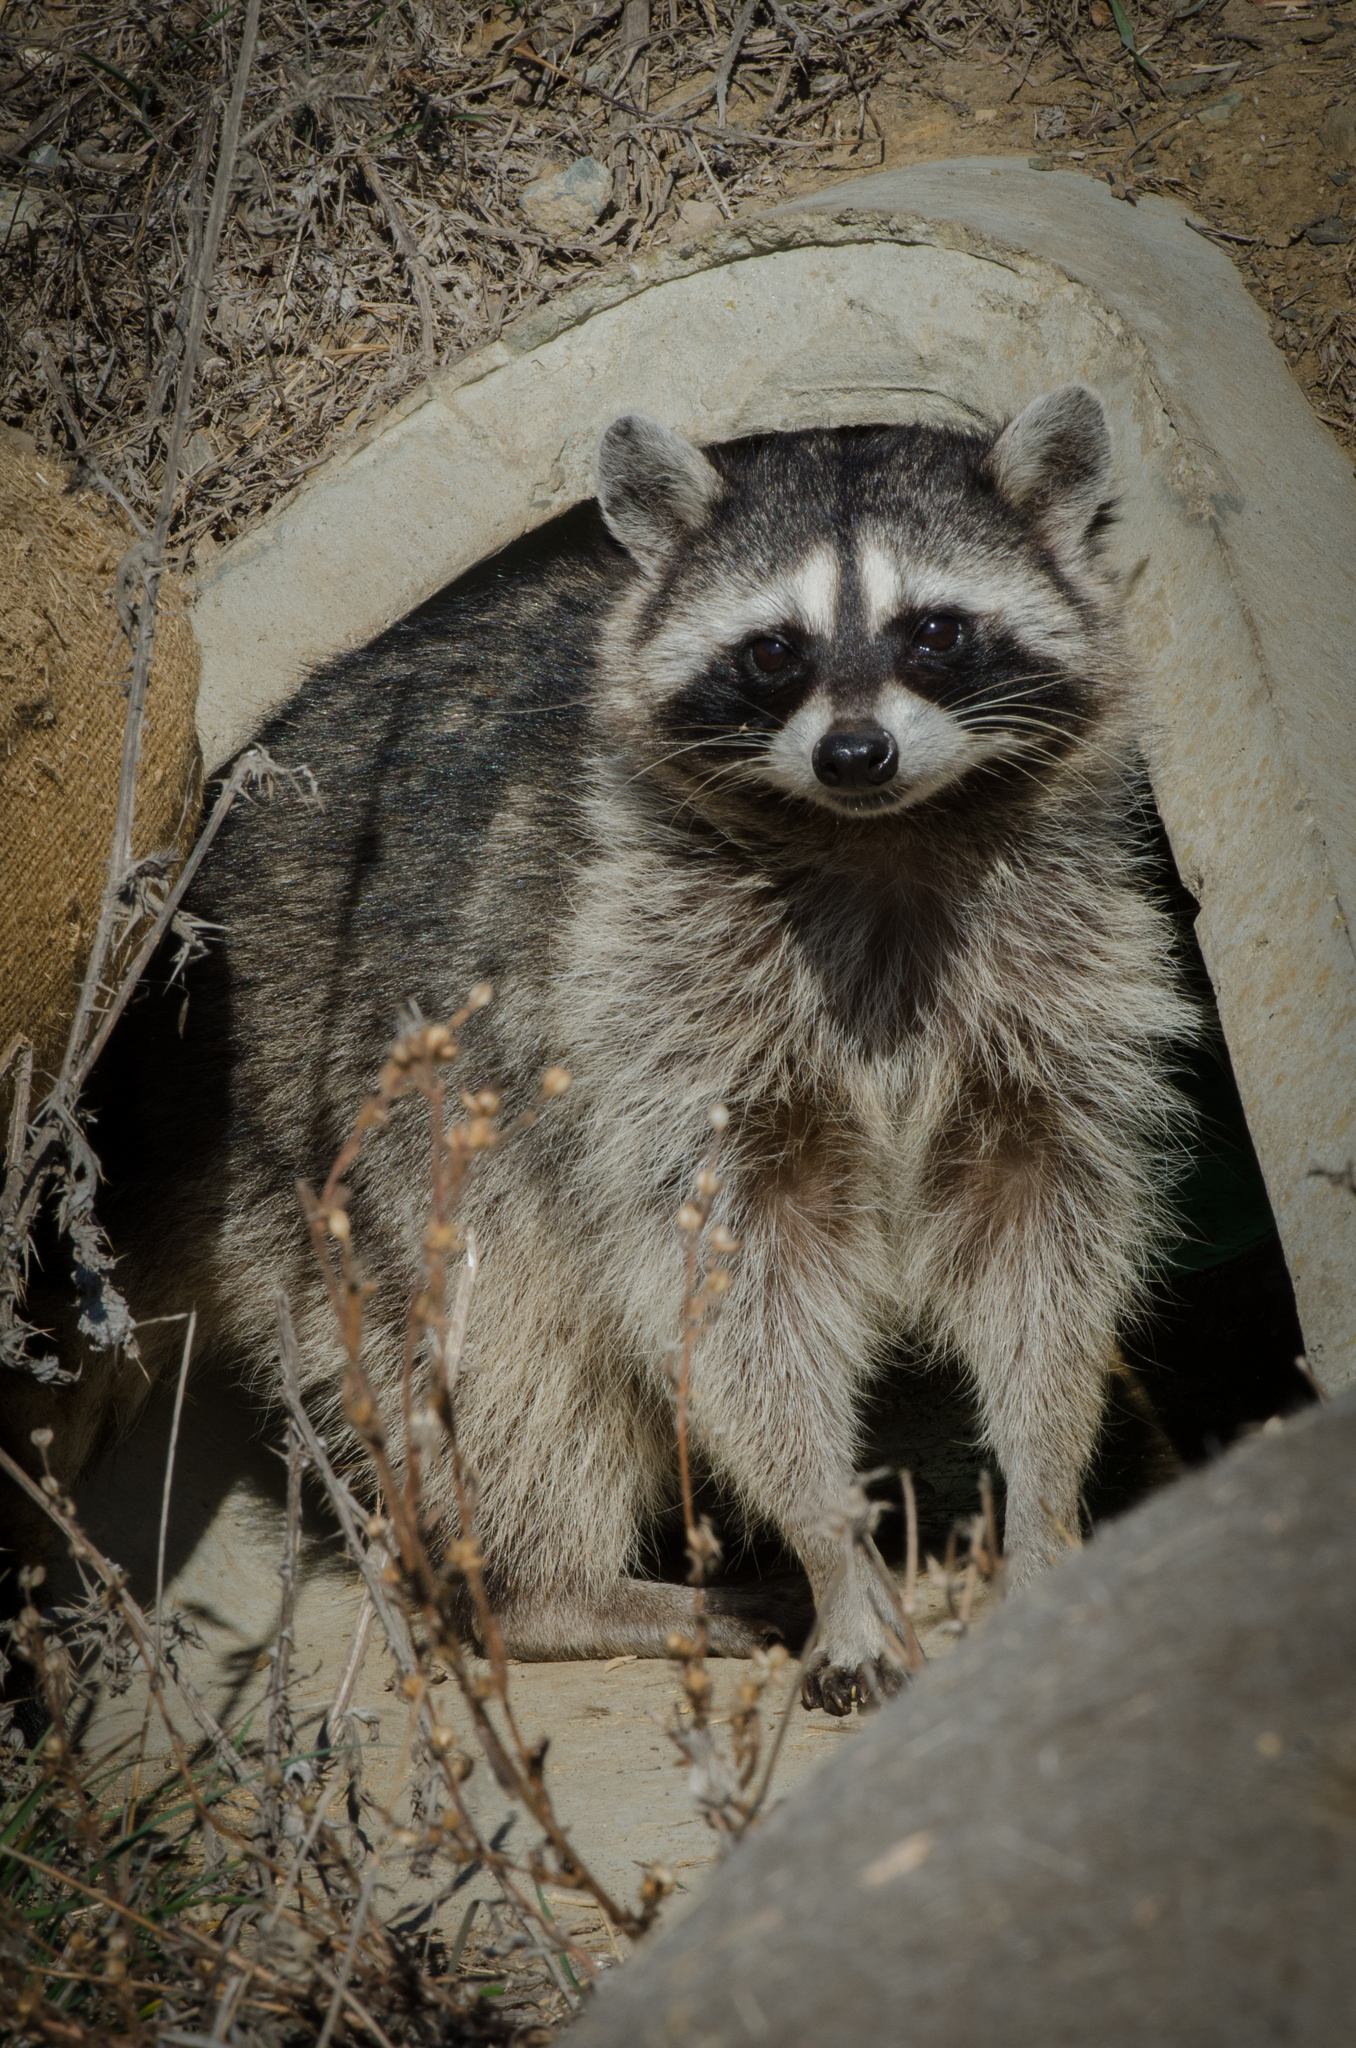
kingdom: Animalia
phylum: Chordata
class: Mammalia
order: Carnivora
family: Procyonidae
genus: Procyon
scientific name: Procyon lotor
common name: Raccoon
